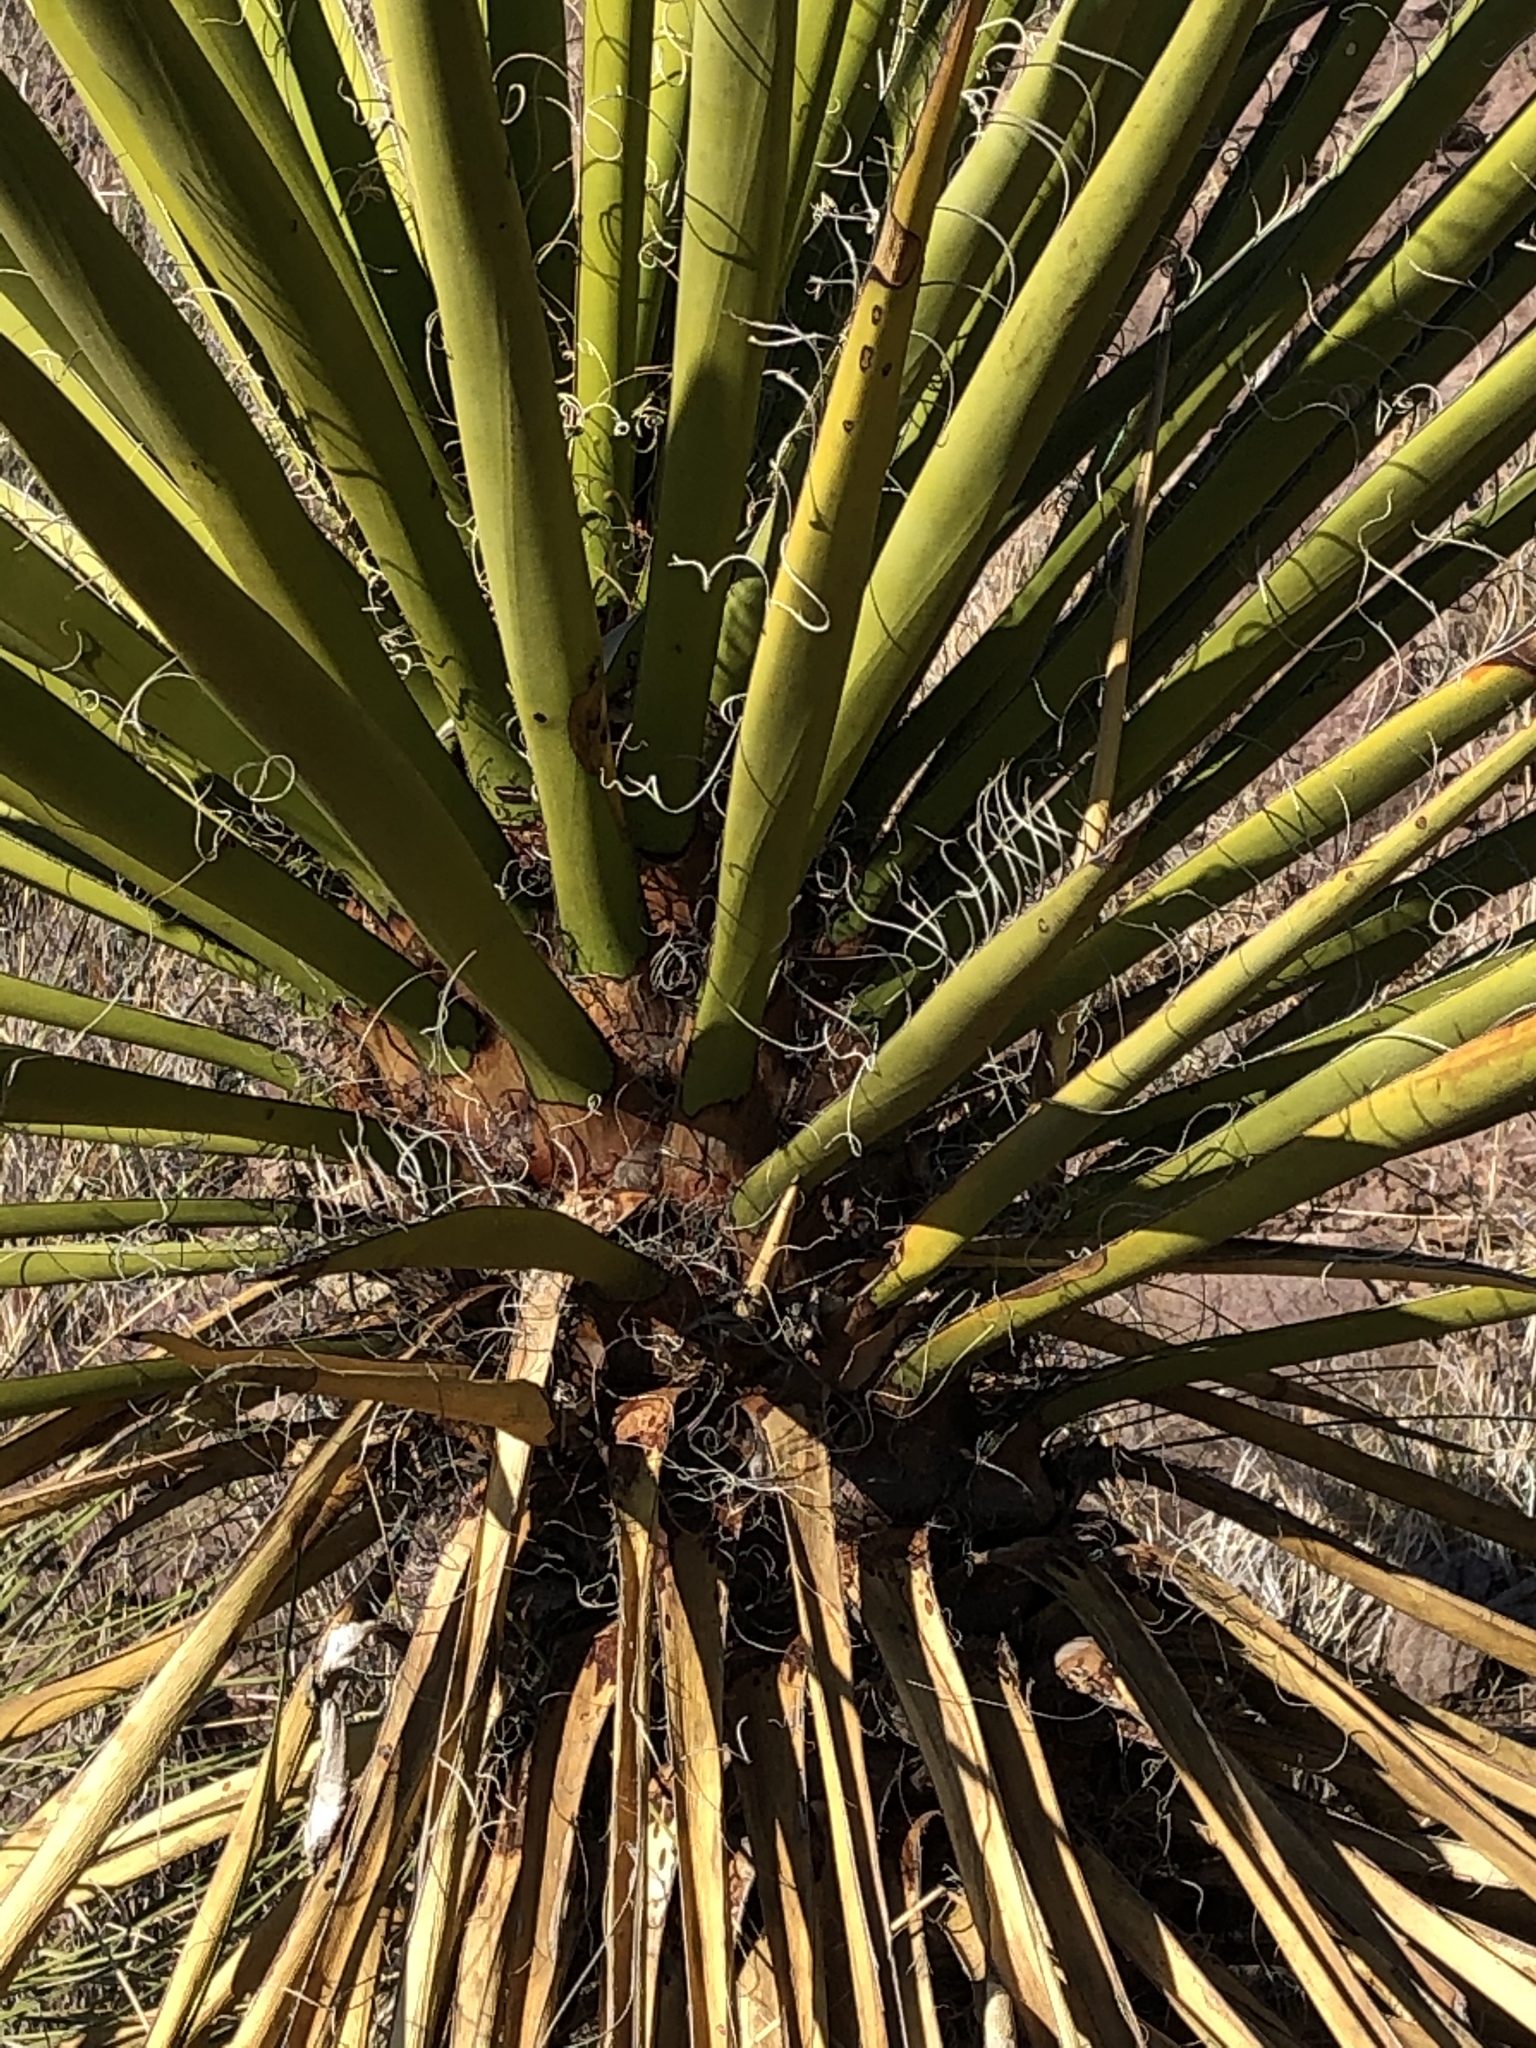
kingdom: Plantae
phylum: Tracheophyta
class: Liliopsida
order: Asparagales
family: Asparagaceae
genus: Yucca
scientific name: Yucca treculiana
